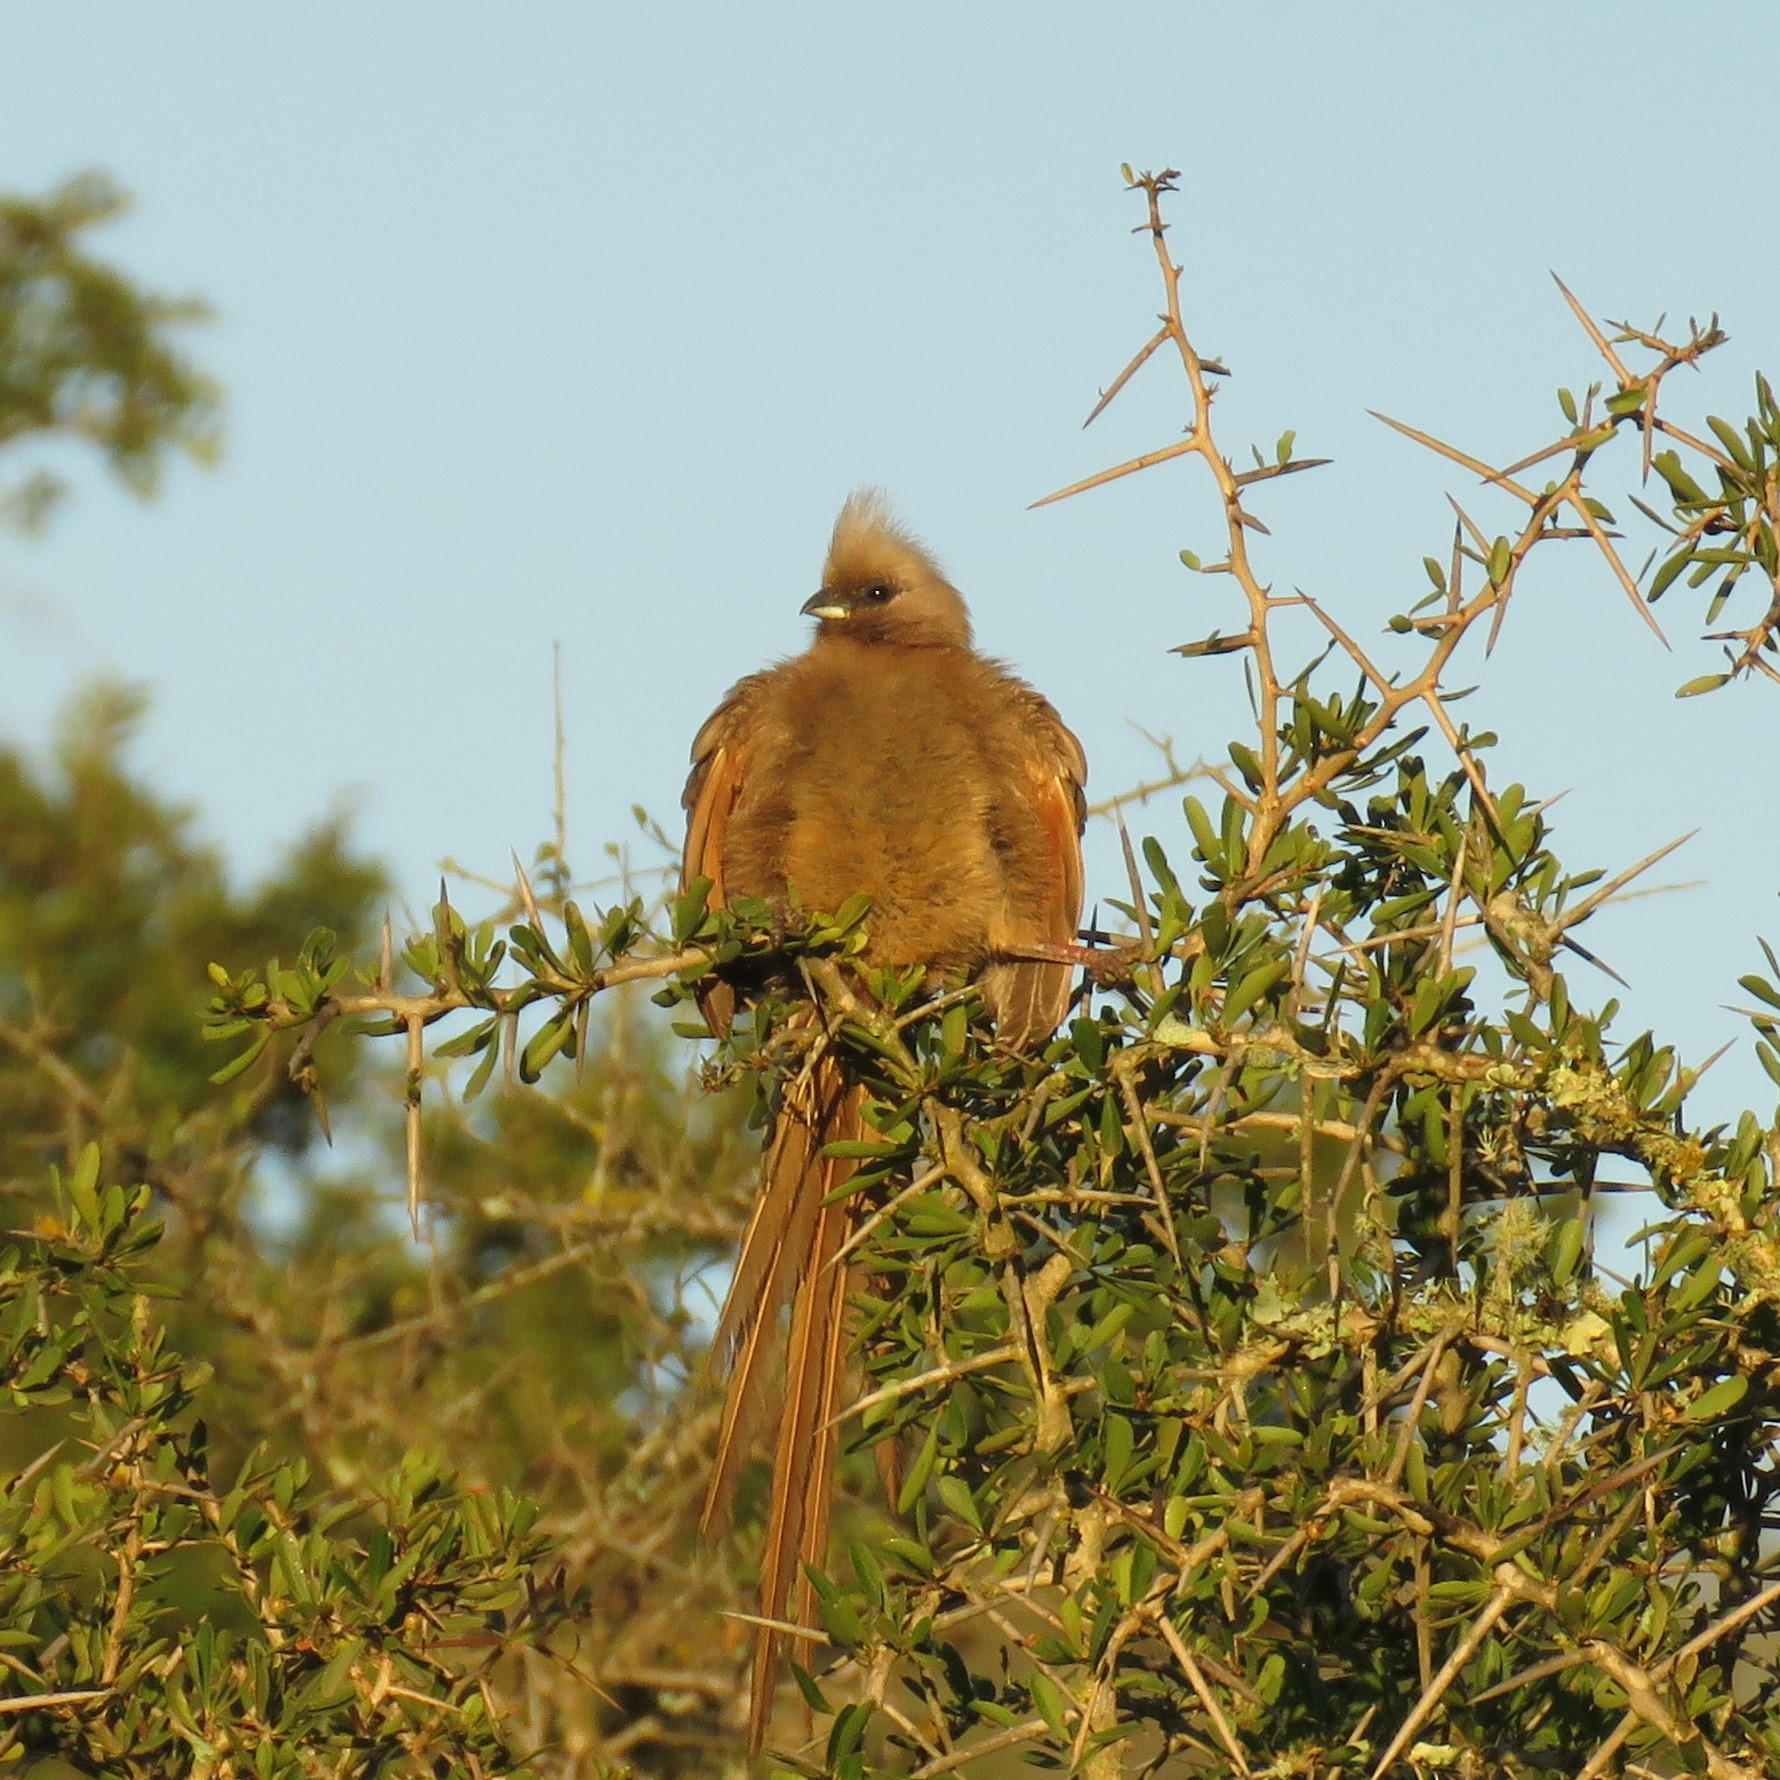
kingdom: Animalia
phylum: Chordata
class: Aves
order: Coliiformes
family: Coliidae
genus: Colius
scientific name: Colius striatus
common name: Speckled mousebird
